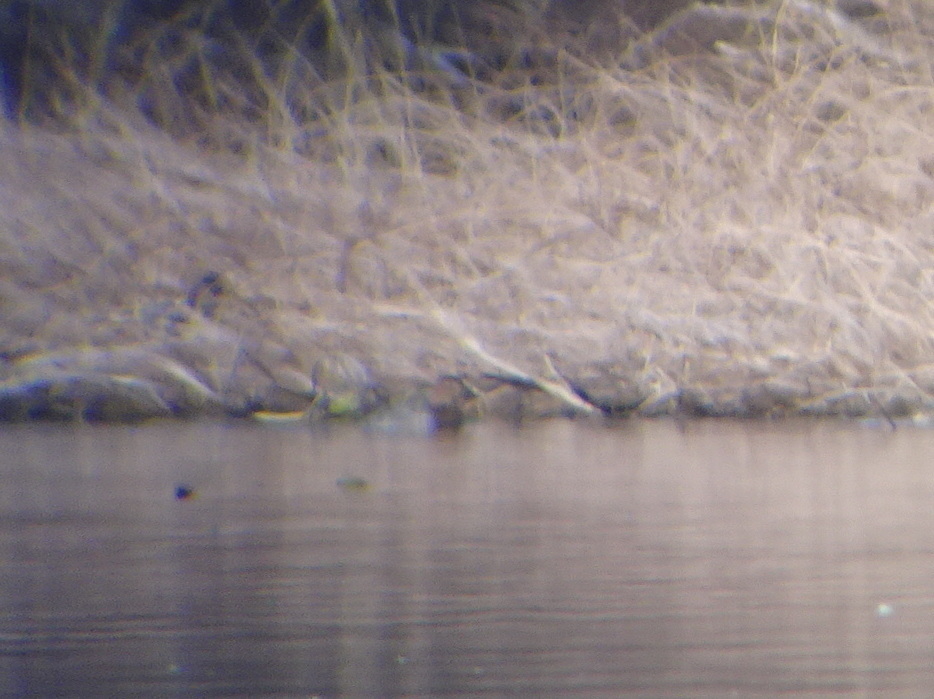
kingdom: Animalia
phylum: Chordata
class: Aves
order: Anseriformes
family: Anatidae
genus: Anas
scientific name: Anas crecca
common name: Eurasian teal
